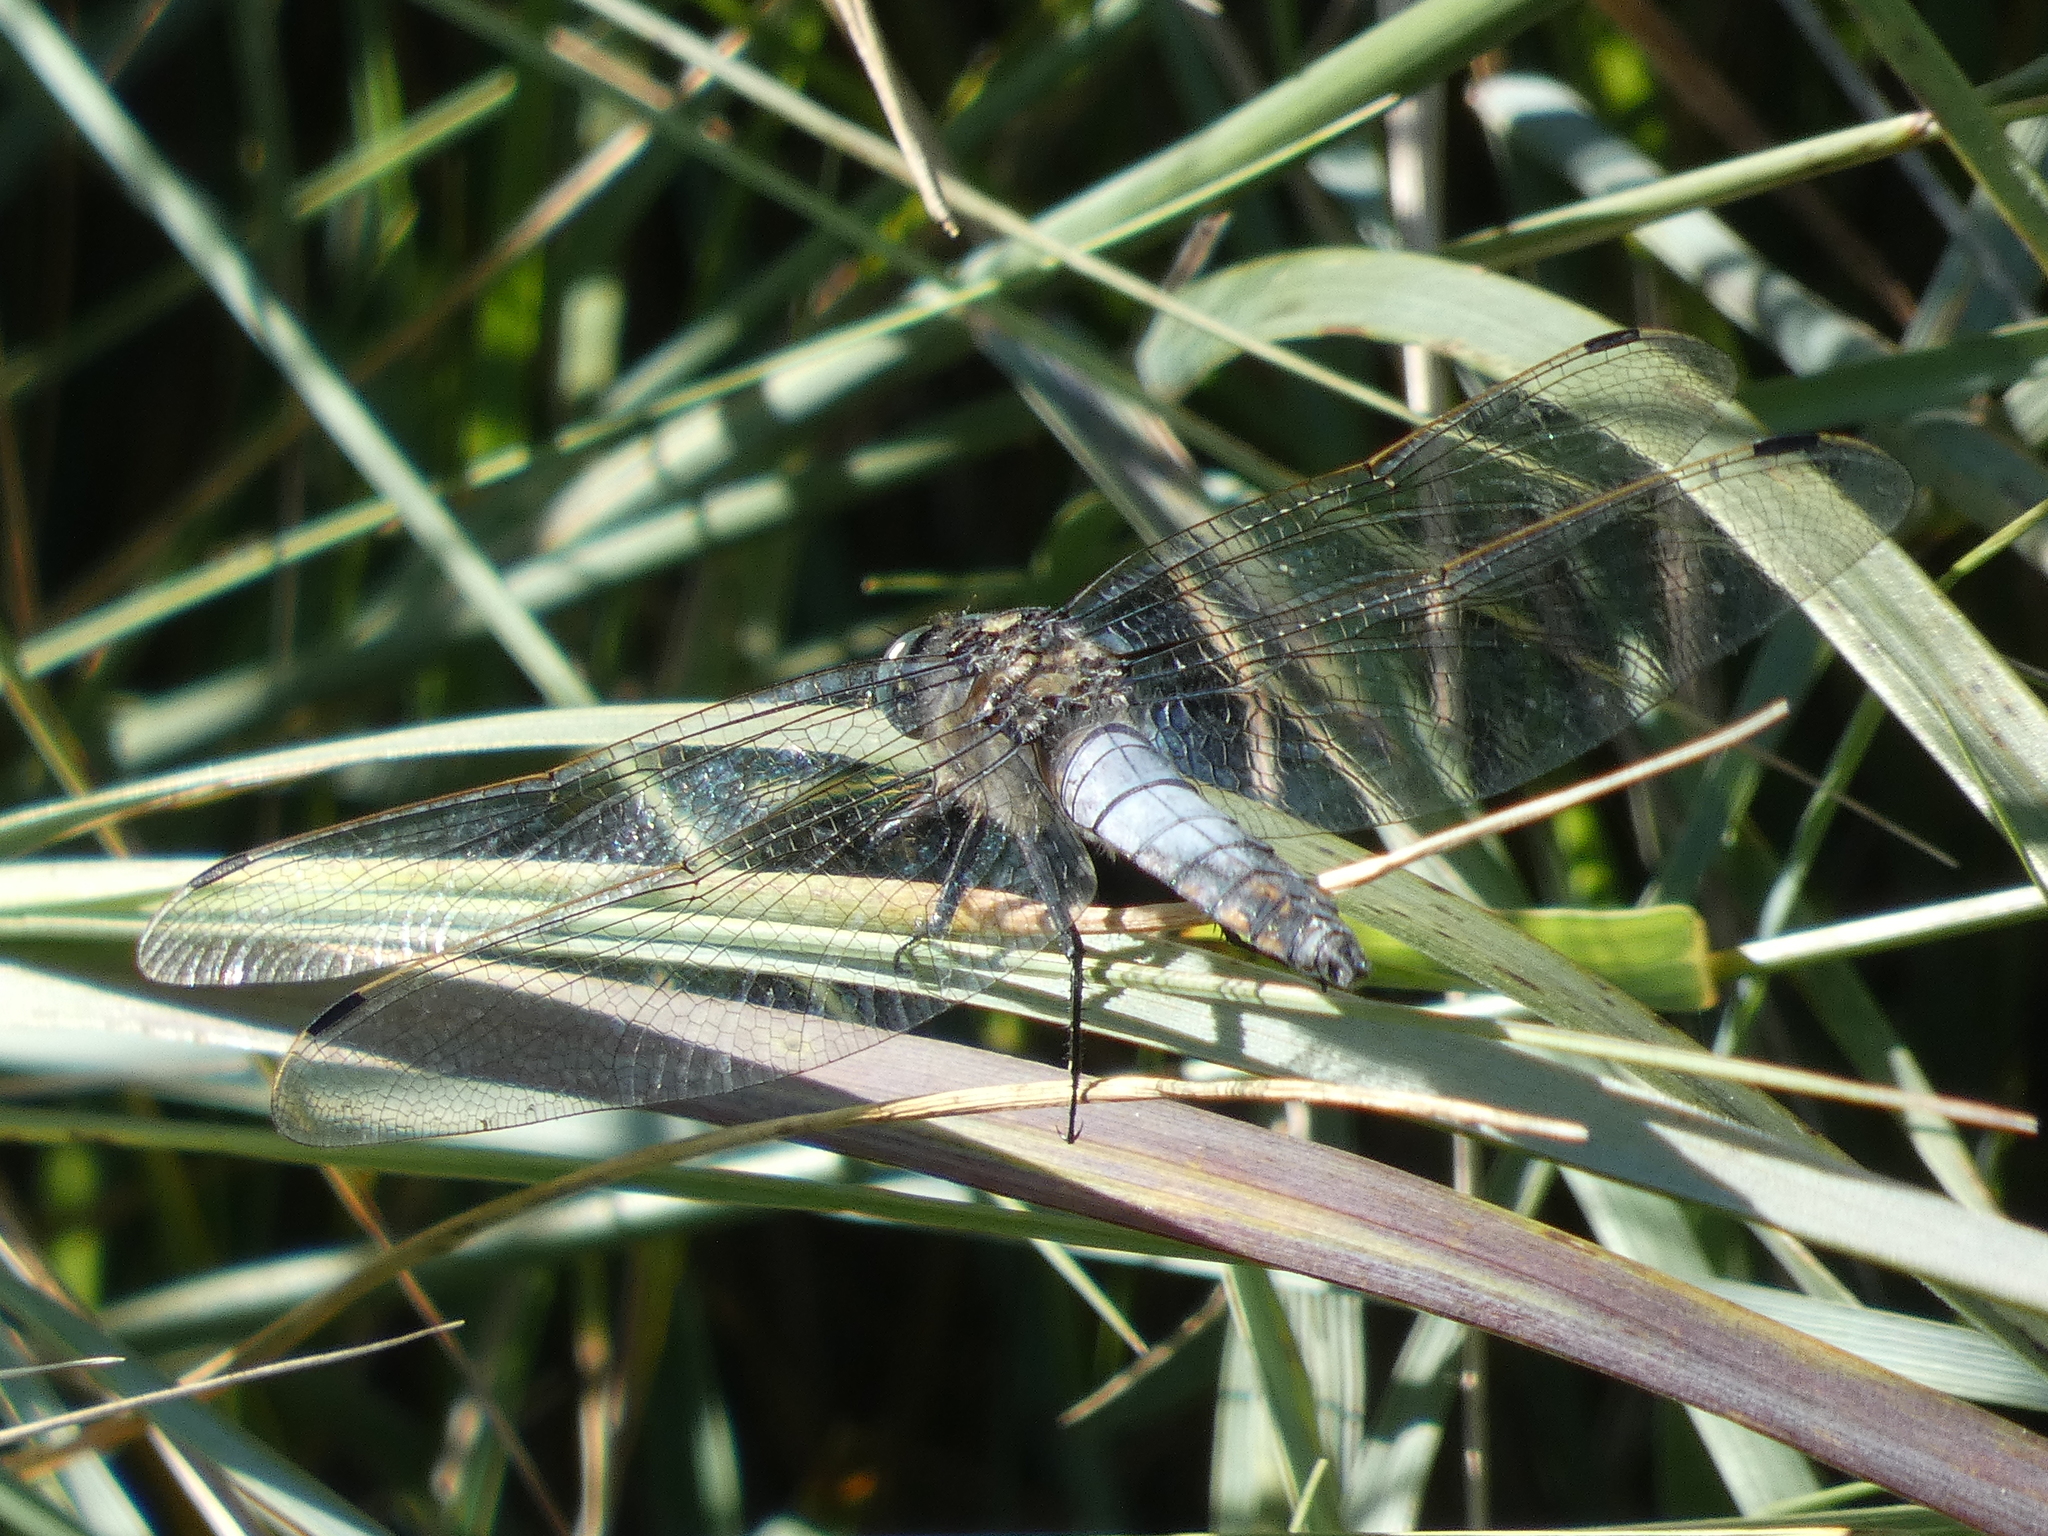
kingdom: Animalia
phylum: Arthropoda
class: Insecta
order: Odonata
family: Libellulidae
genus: Orthetrum
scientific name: Orthetrum cancellatum
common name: Black-tailed skimmer
